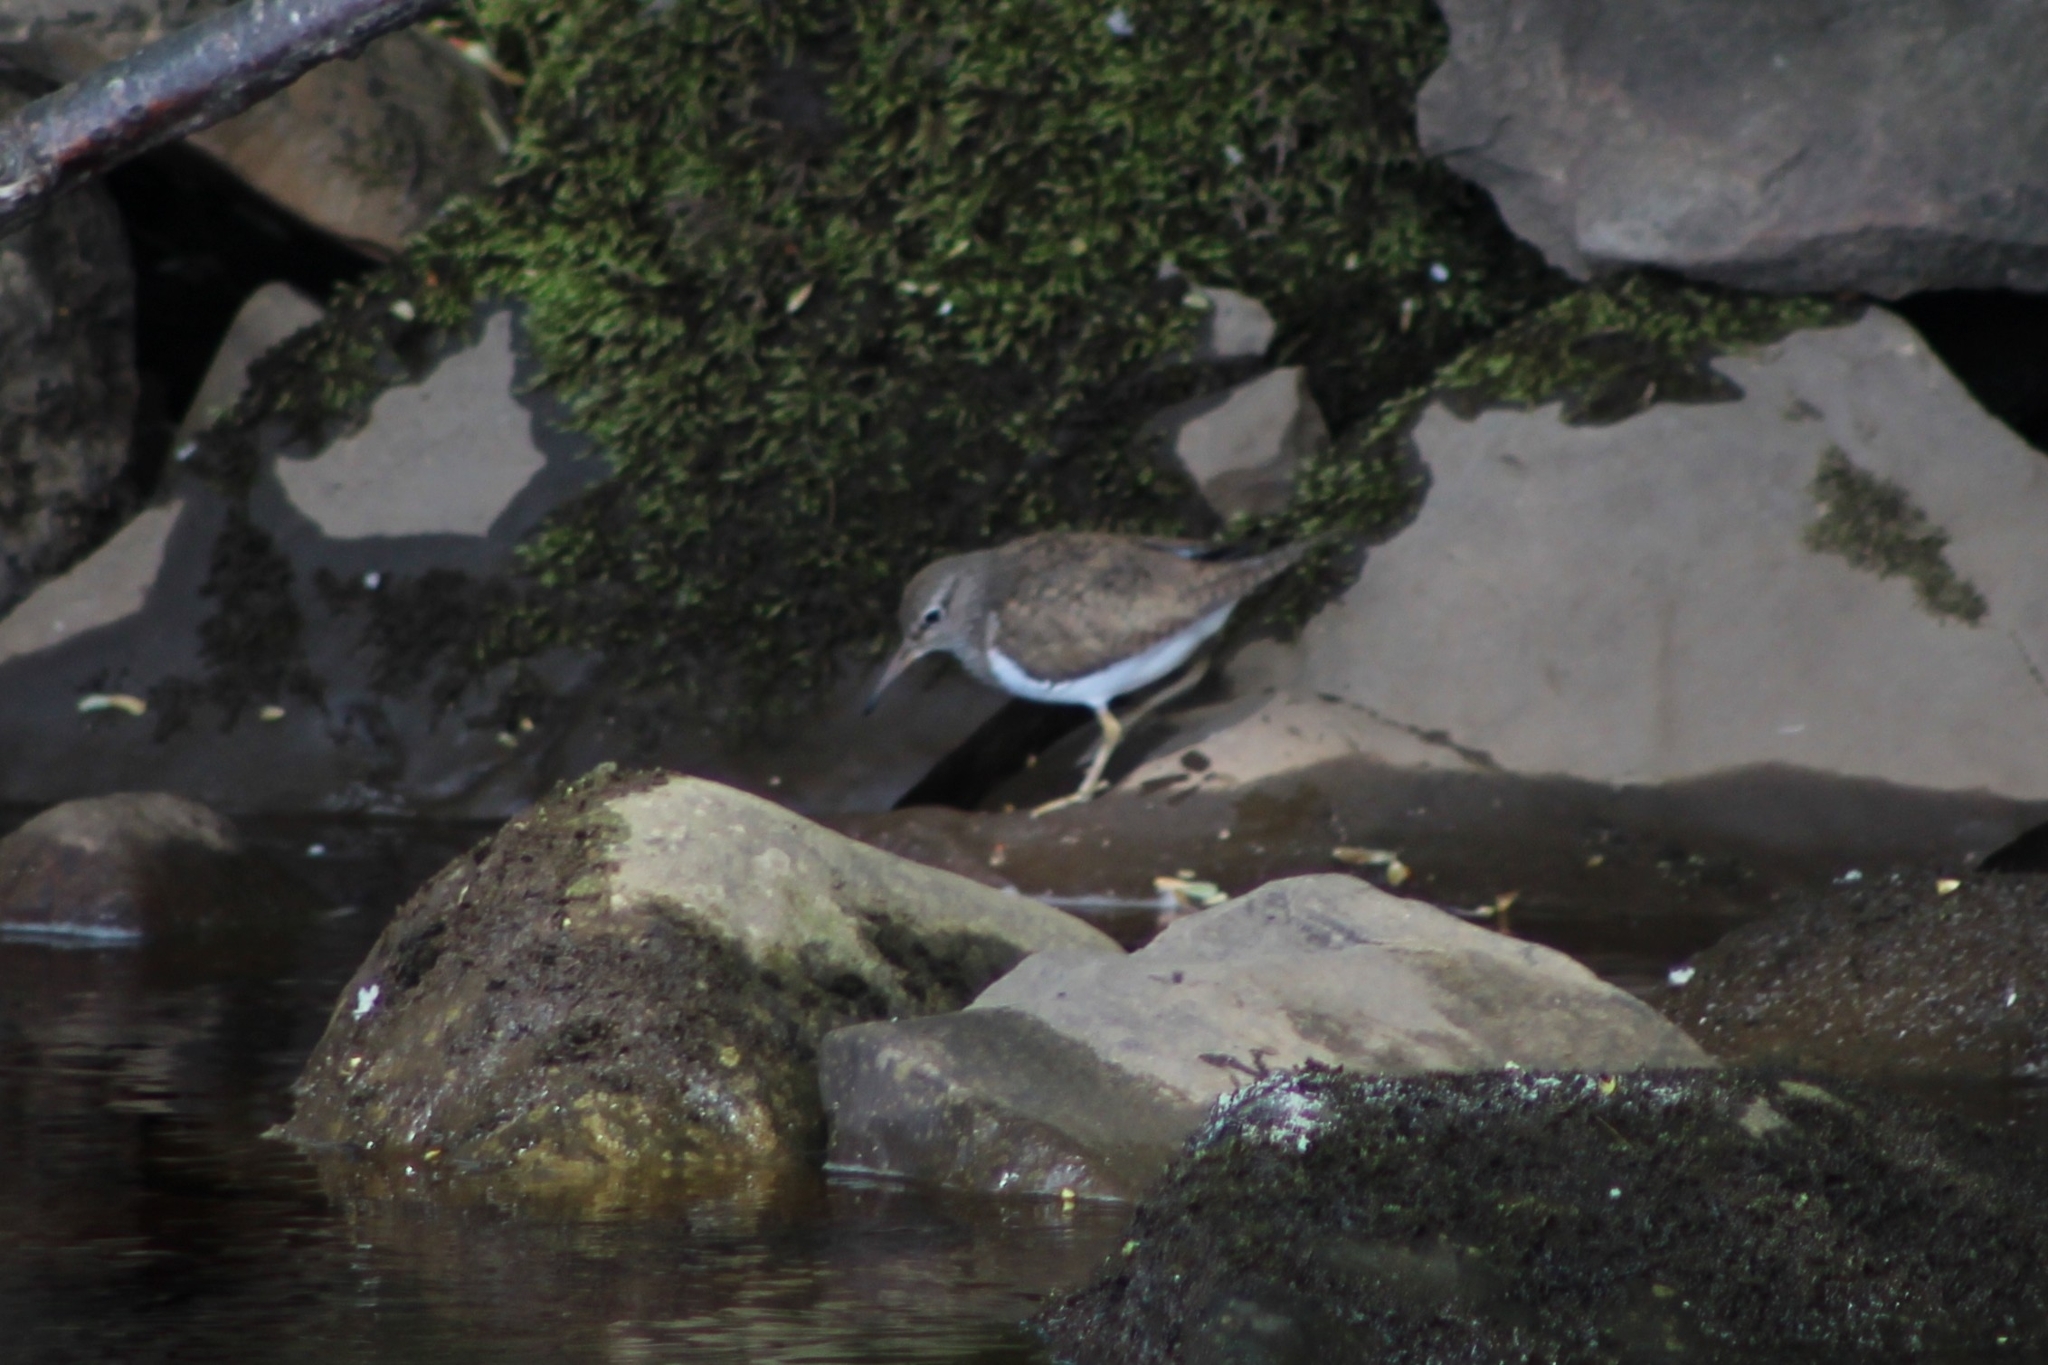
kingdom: Animalia
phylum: Chordata
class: Aves
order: Charadriiformes
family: Scolopacidae
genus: Actitis
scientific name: Actitis hypoleucos
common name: Common sandpiper
